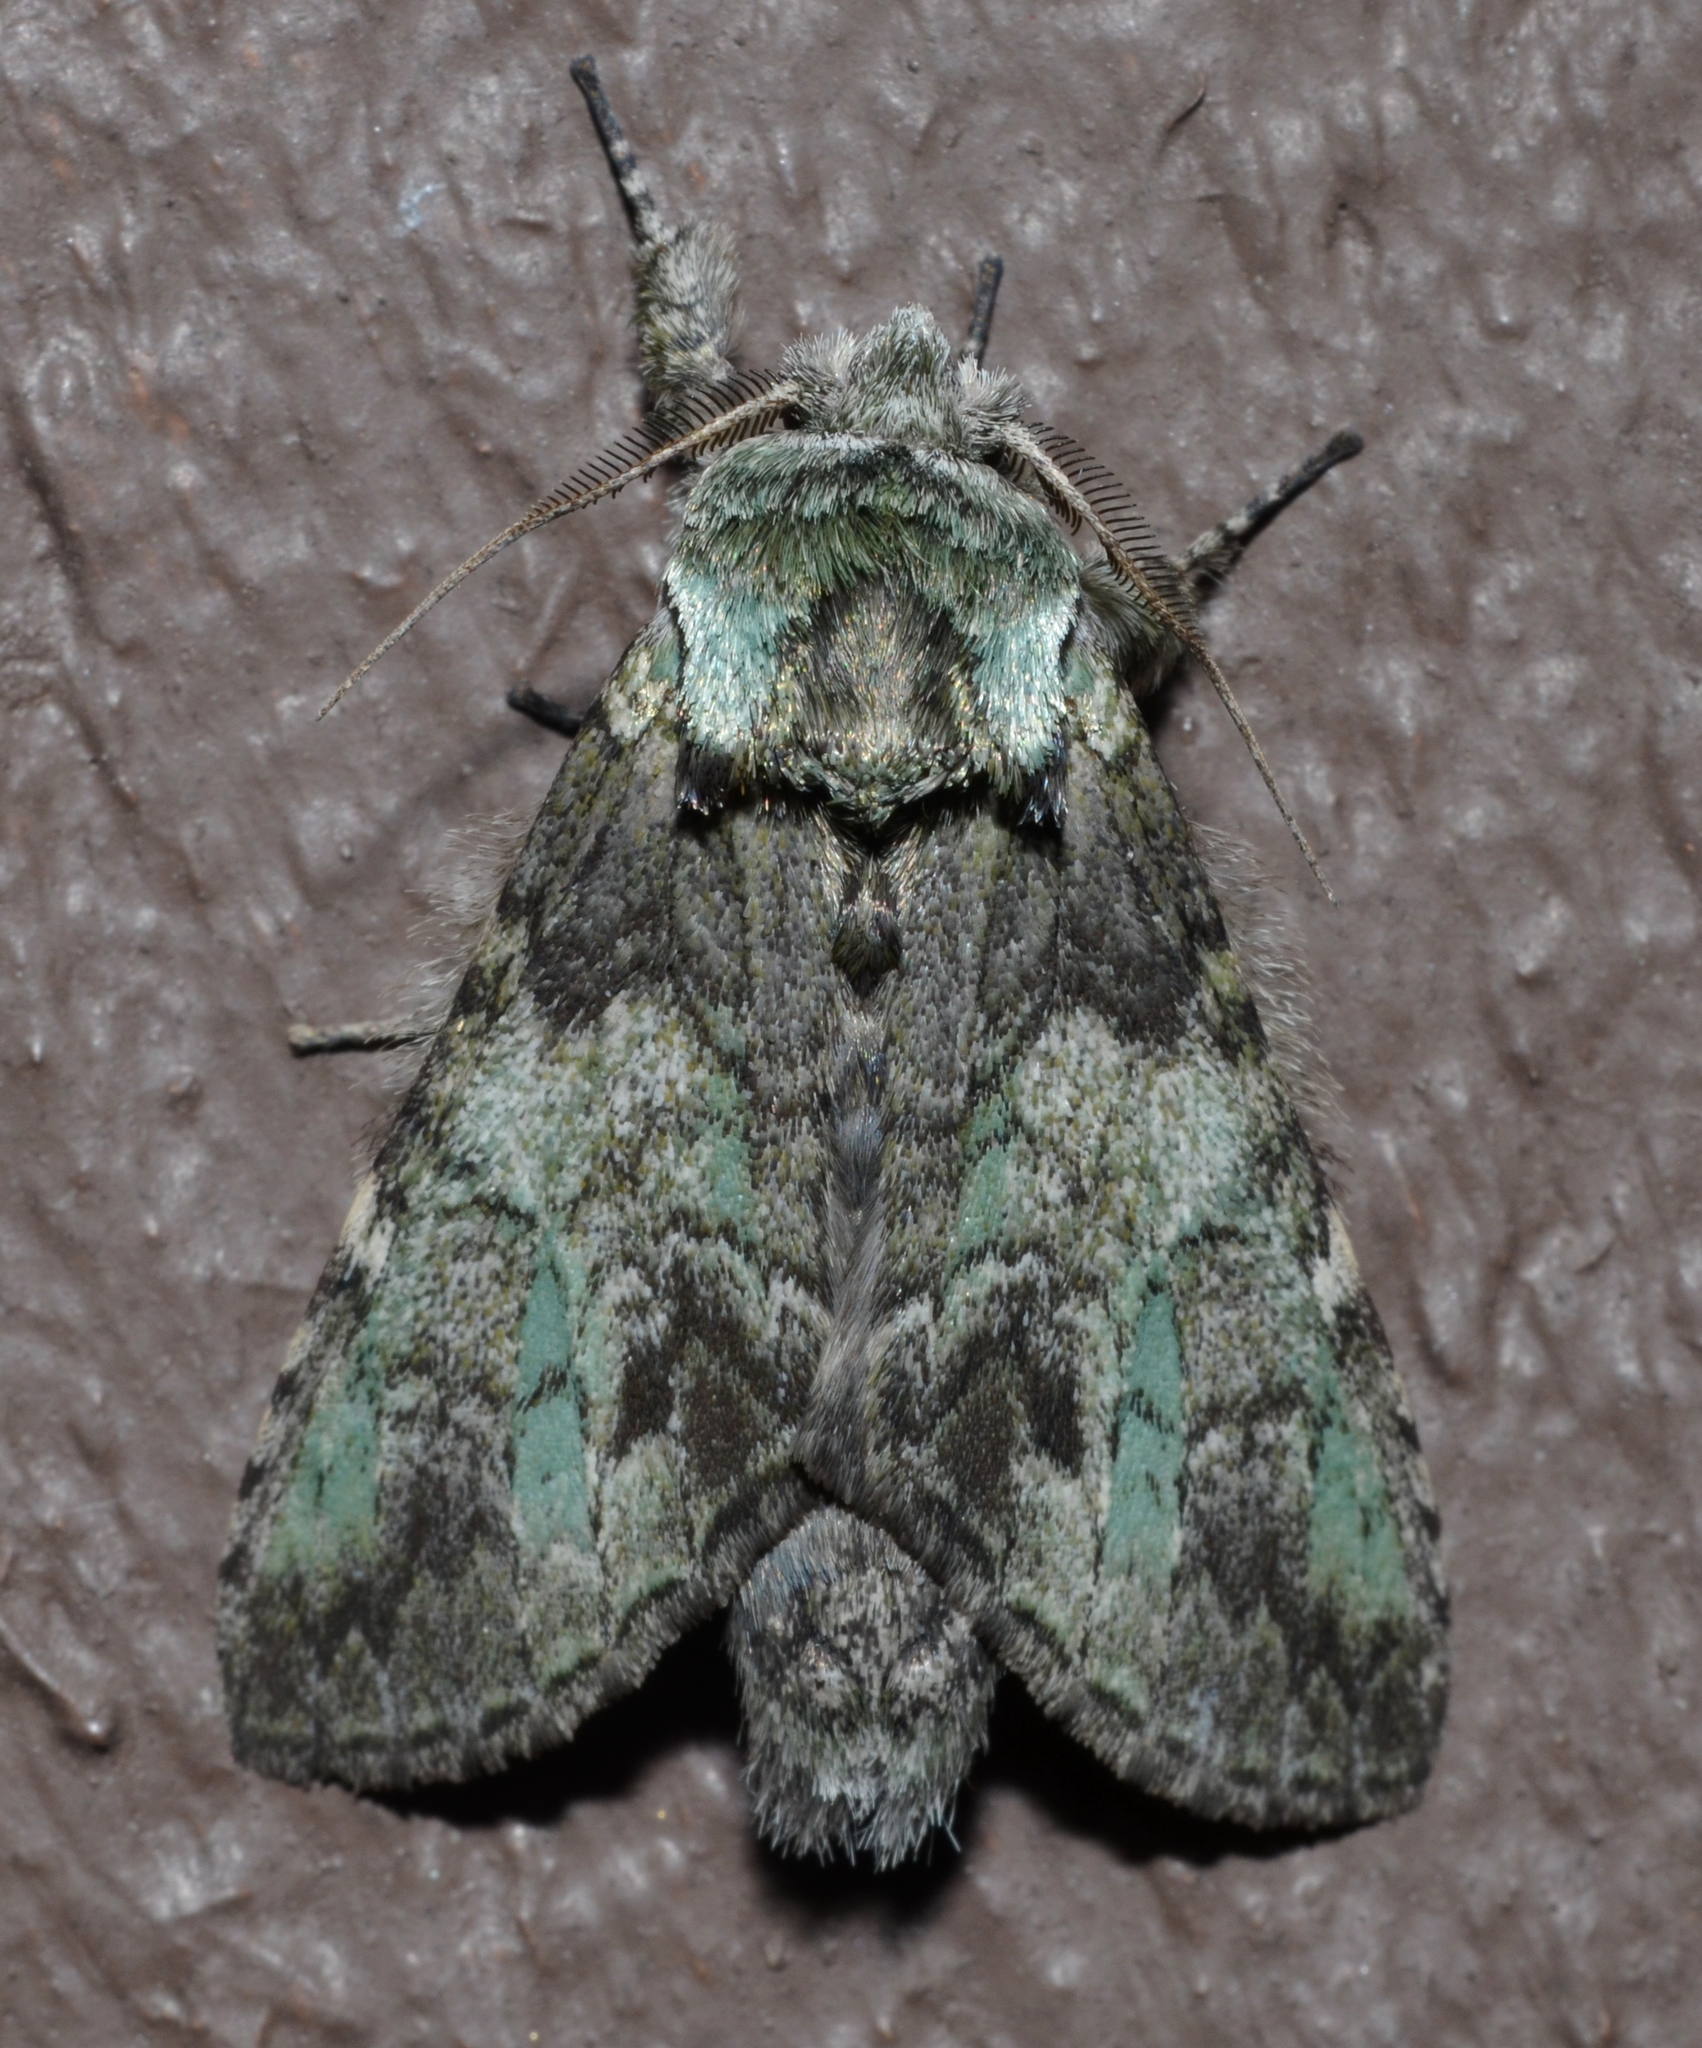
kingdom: Animalia
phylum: Arthropoda
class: Insecta
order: Lepidoptera
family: Notodontidae
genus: Macrurocampa
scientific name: Macrurocampa marthesia
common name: Mottled prominent
